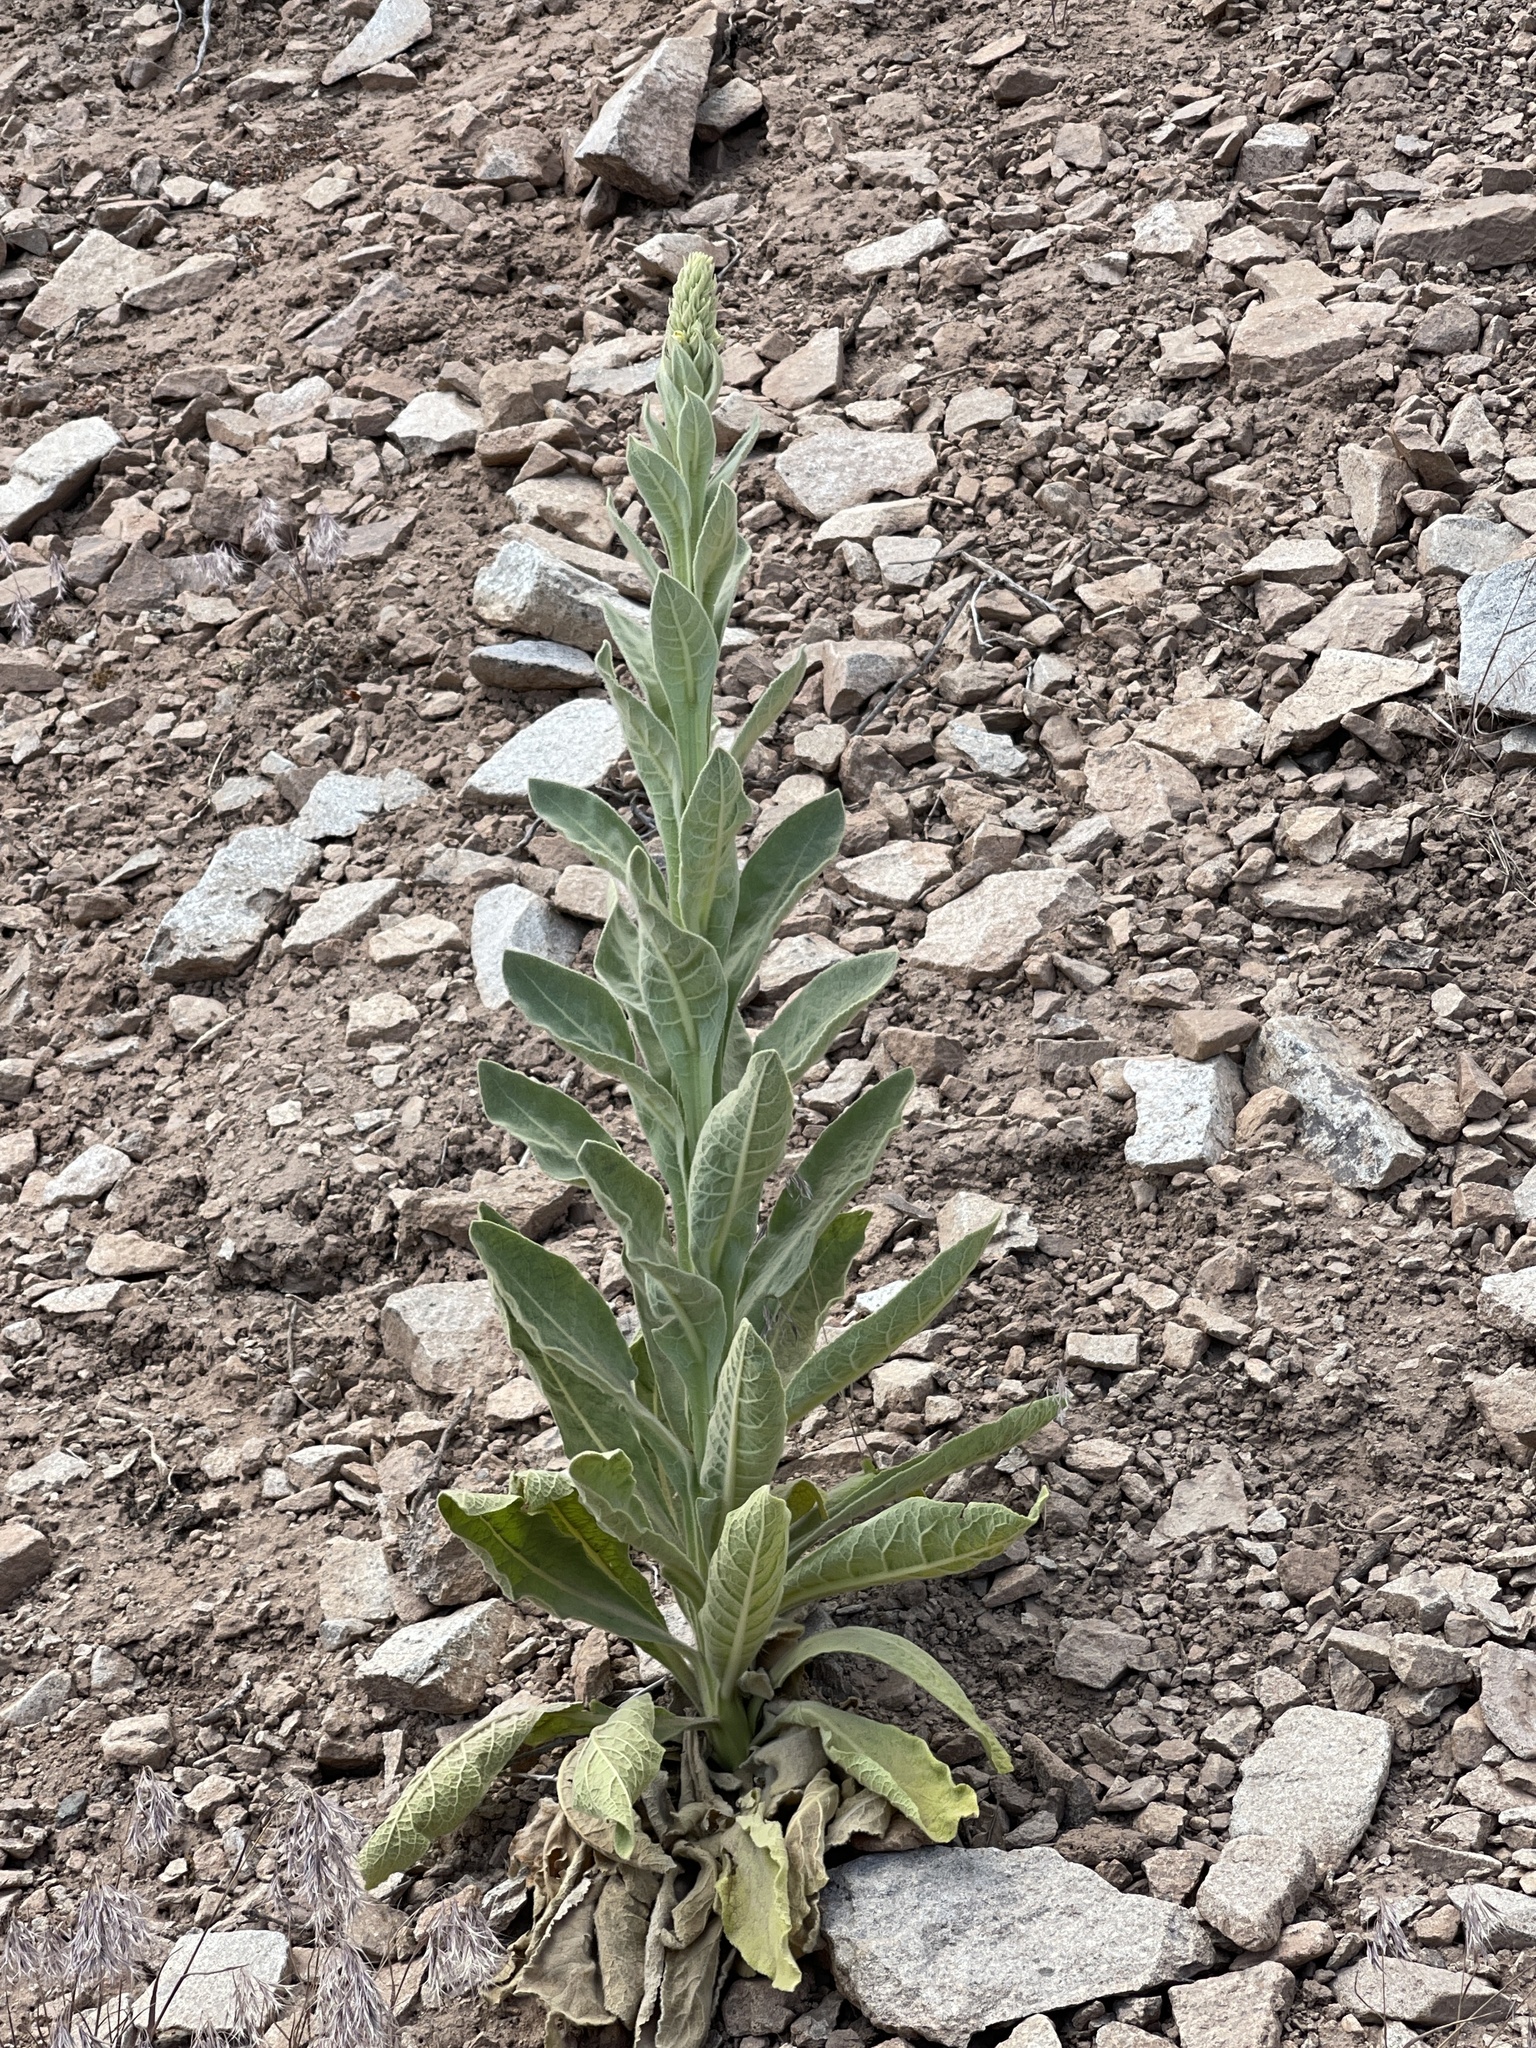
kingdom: Plantae
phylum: Tracheophyta
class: Magnoliopsida
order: Lamiales
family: Scrophulariaceae
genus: Verbascum
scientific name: Verbascum thapsus
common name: Common mullein
